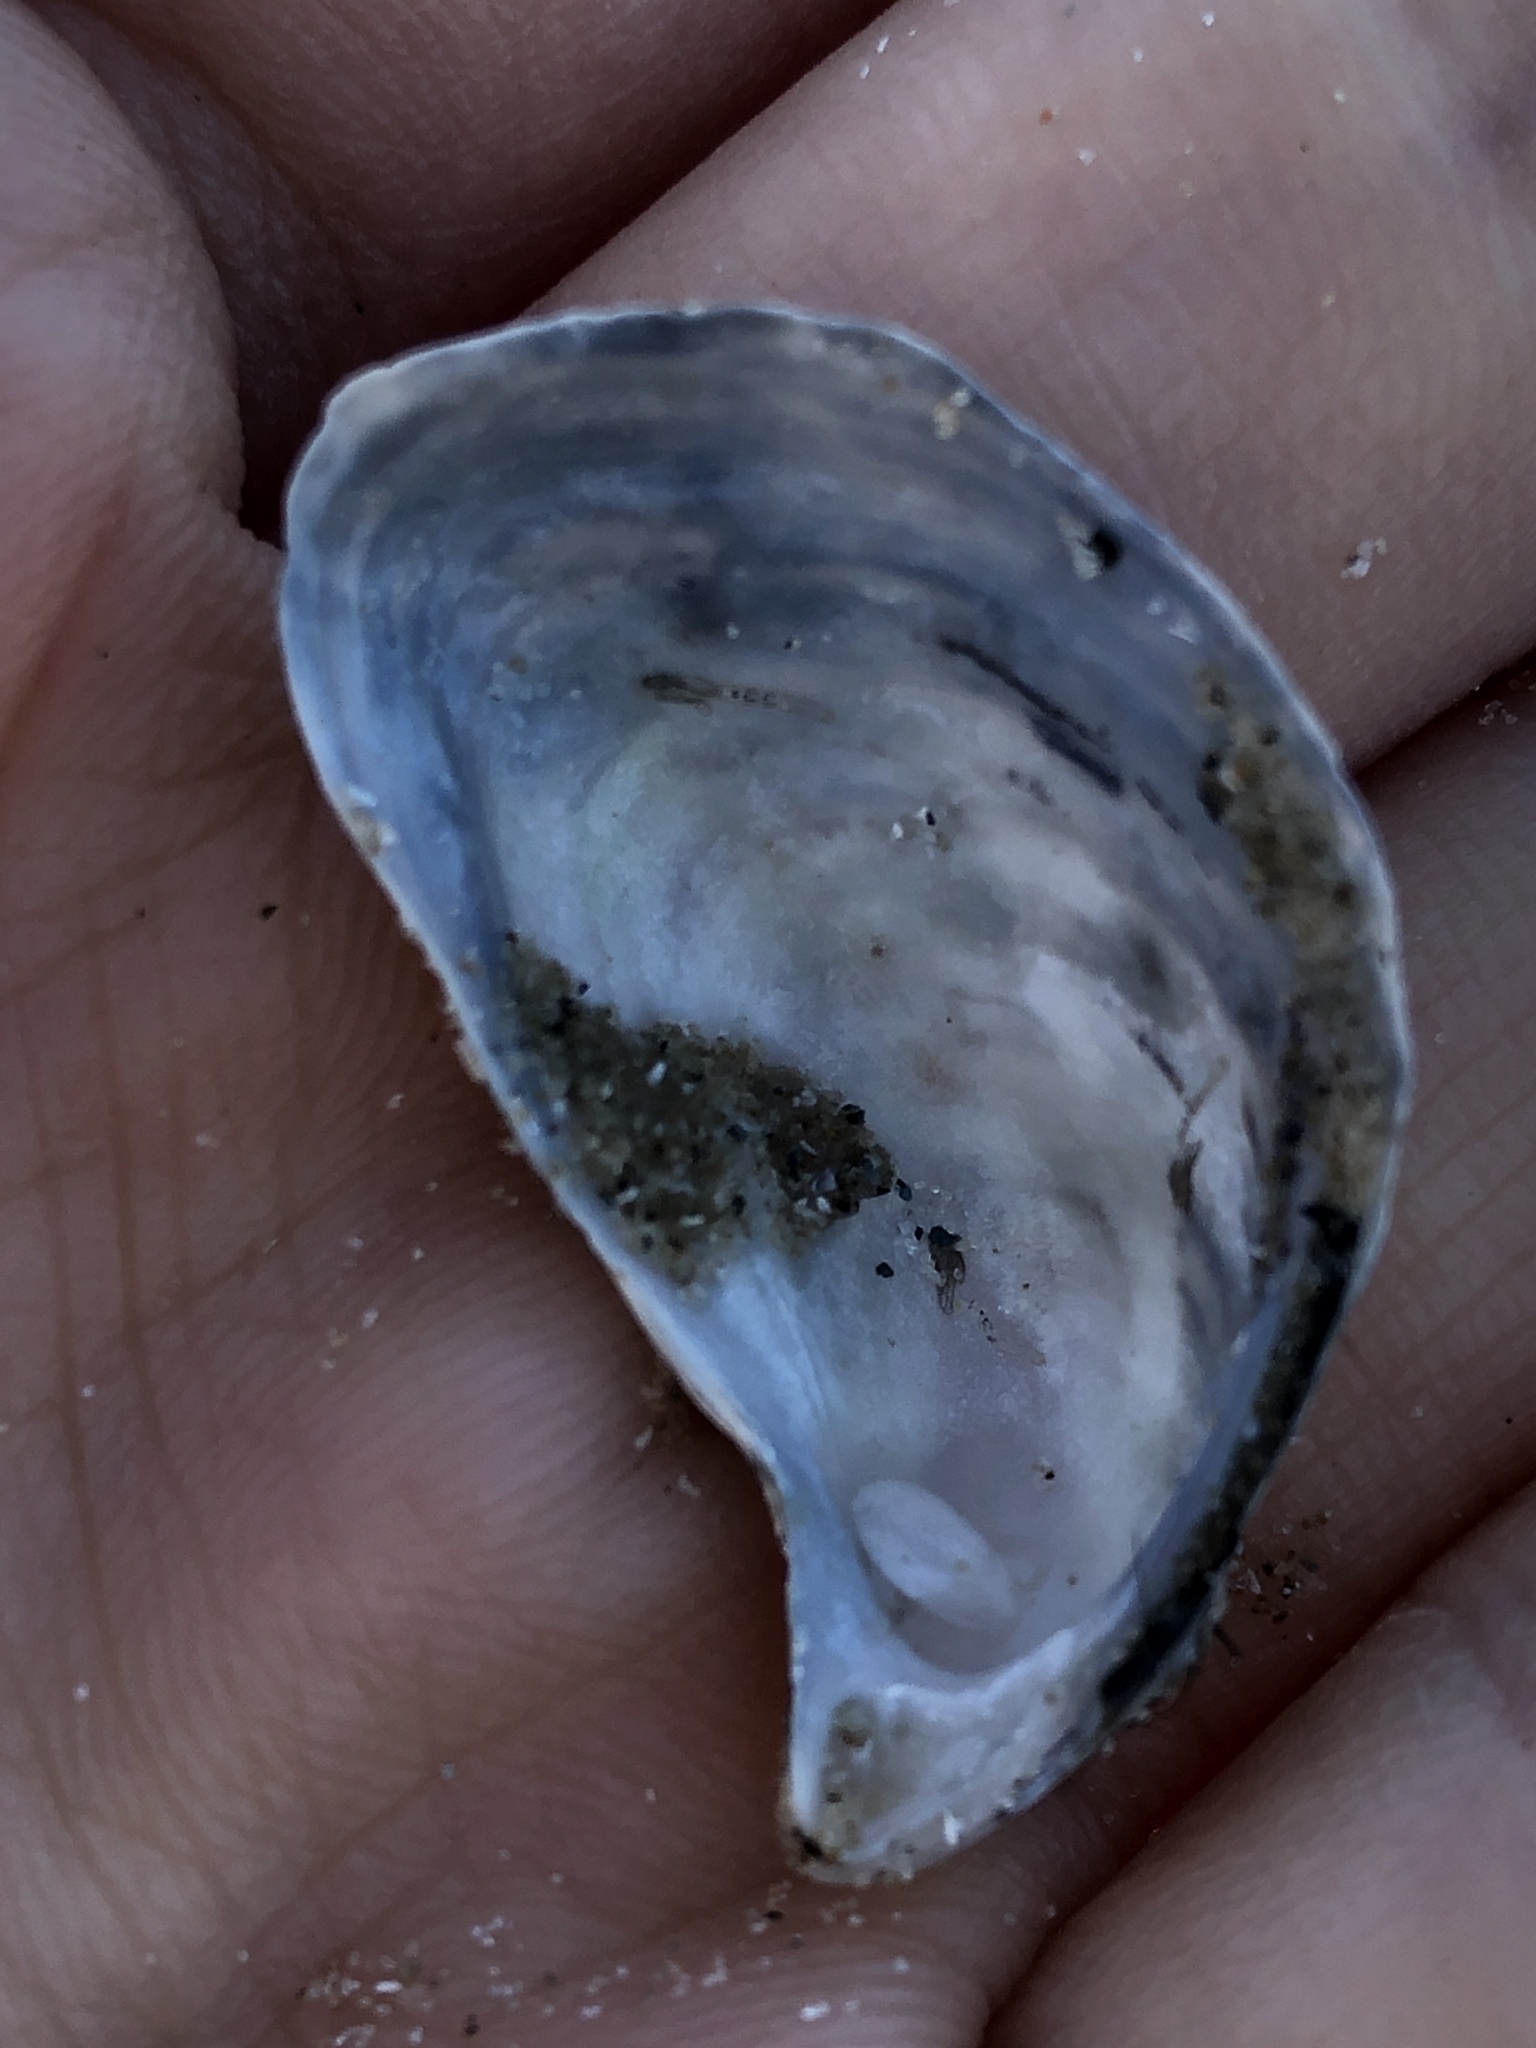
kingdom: Animalia
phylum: Mollusca
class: Bivalvia
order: Myida
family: Dreissenidae
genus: Dreissena
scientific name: Dreissena bugensis
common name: Quagga mussel
